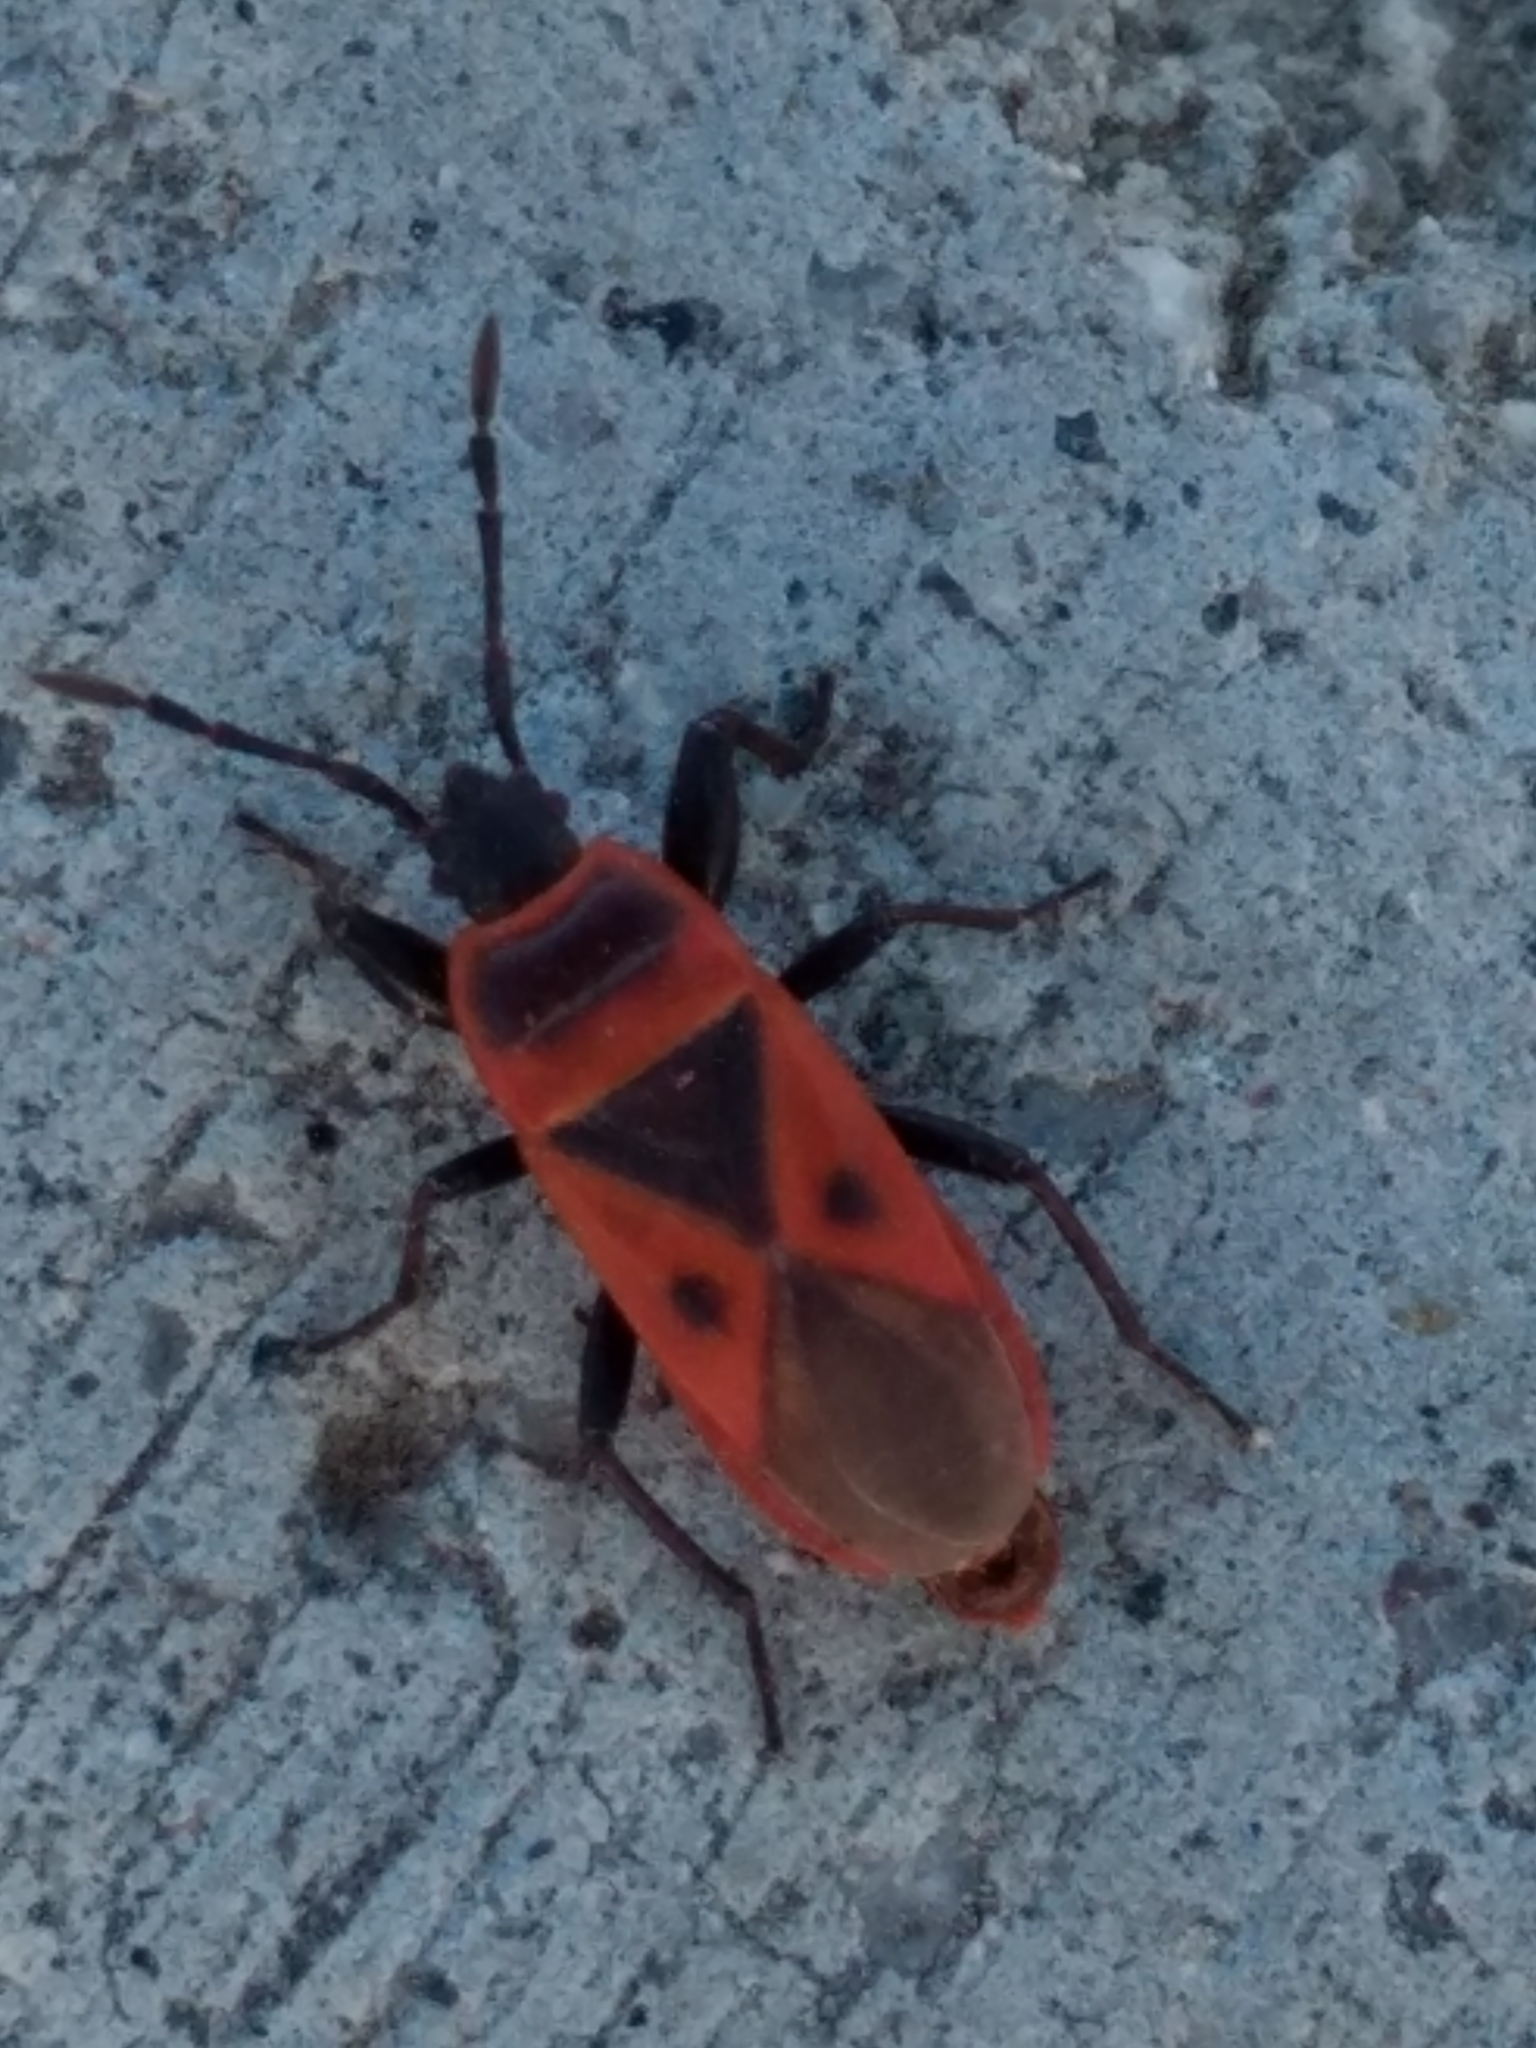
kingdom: Animalia
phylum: Arthropoda
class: Insecta
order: Hemiptera
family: Pyrrhocoridae
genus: Scantius
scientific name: Scantius aegyptius
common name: Red bug
